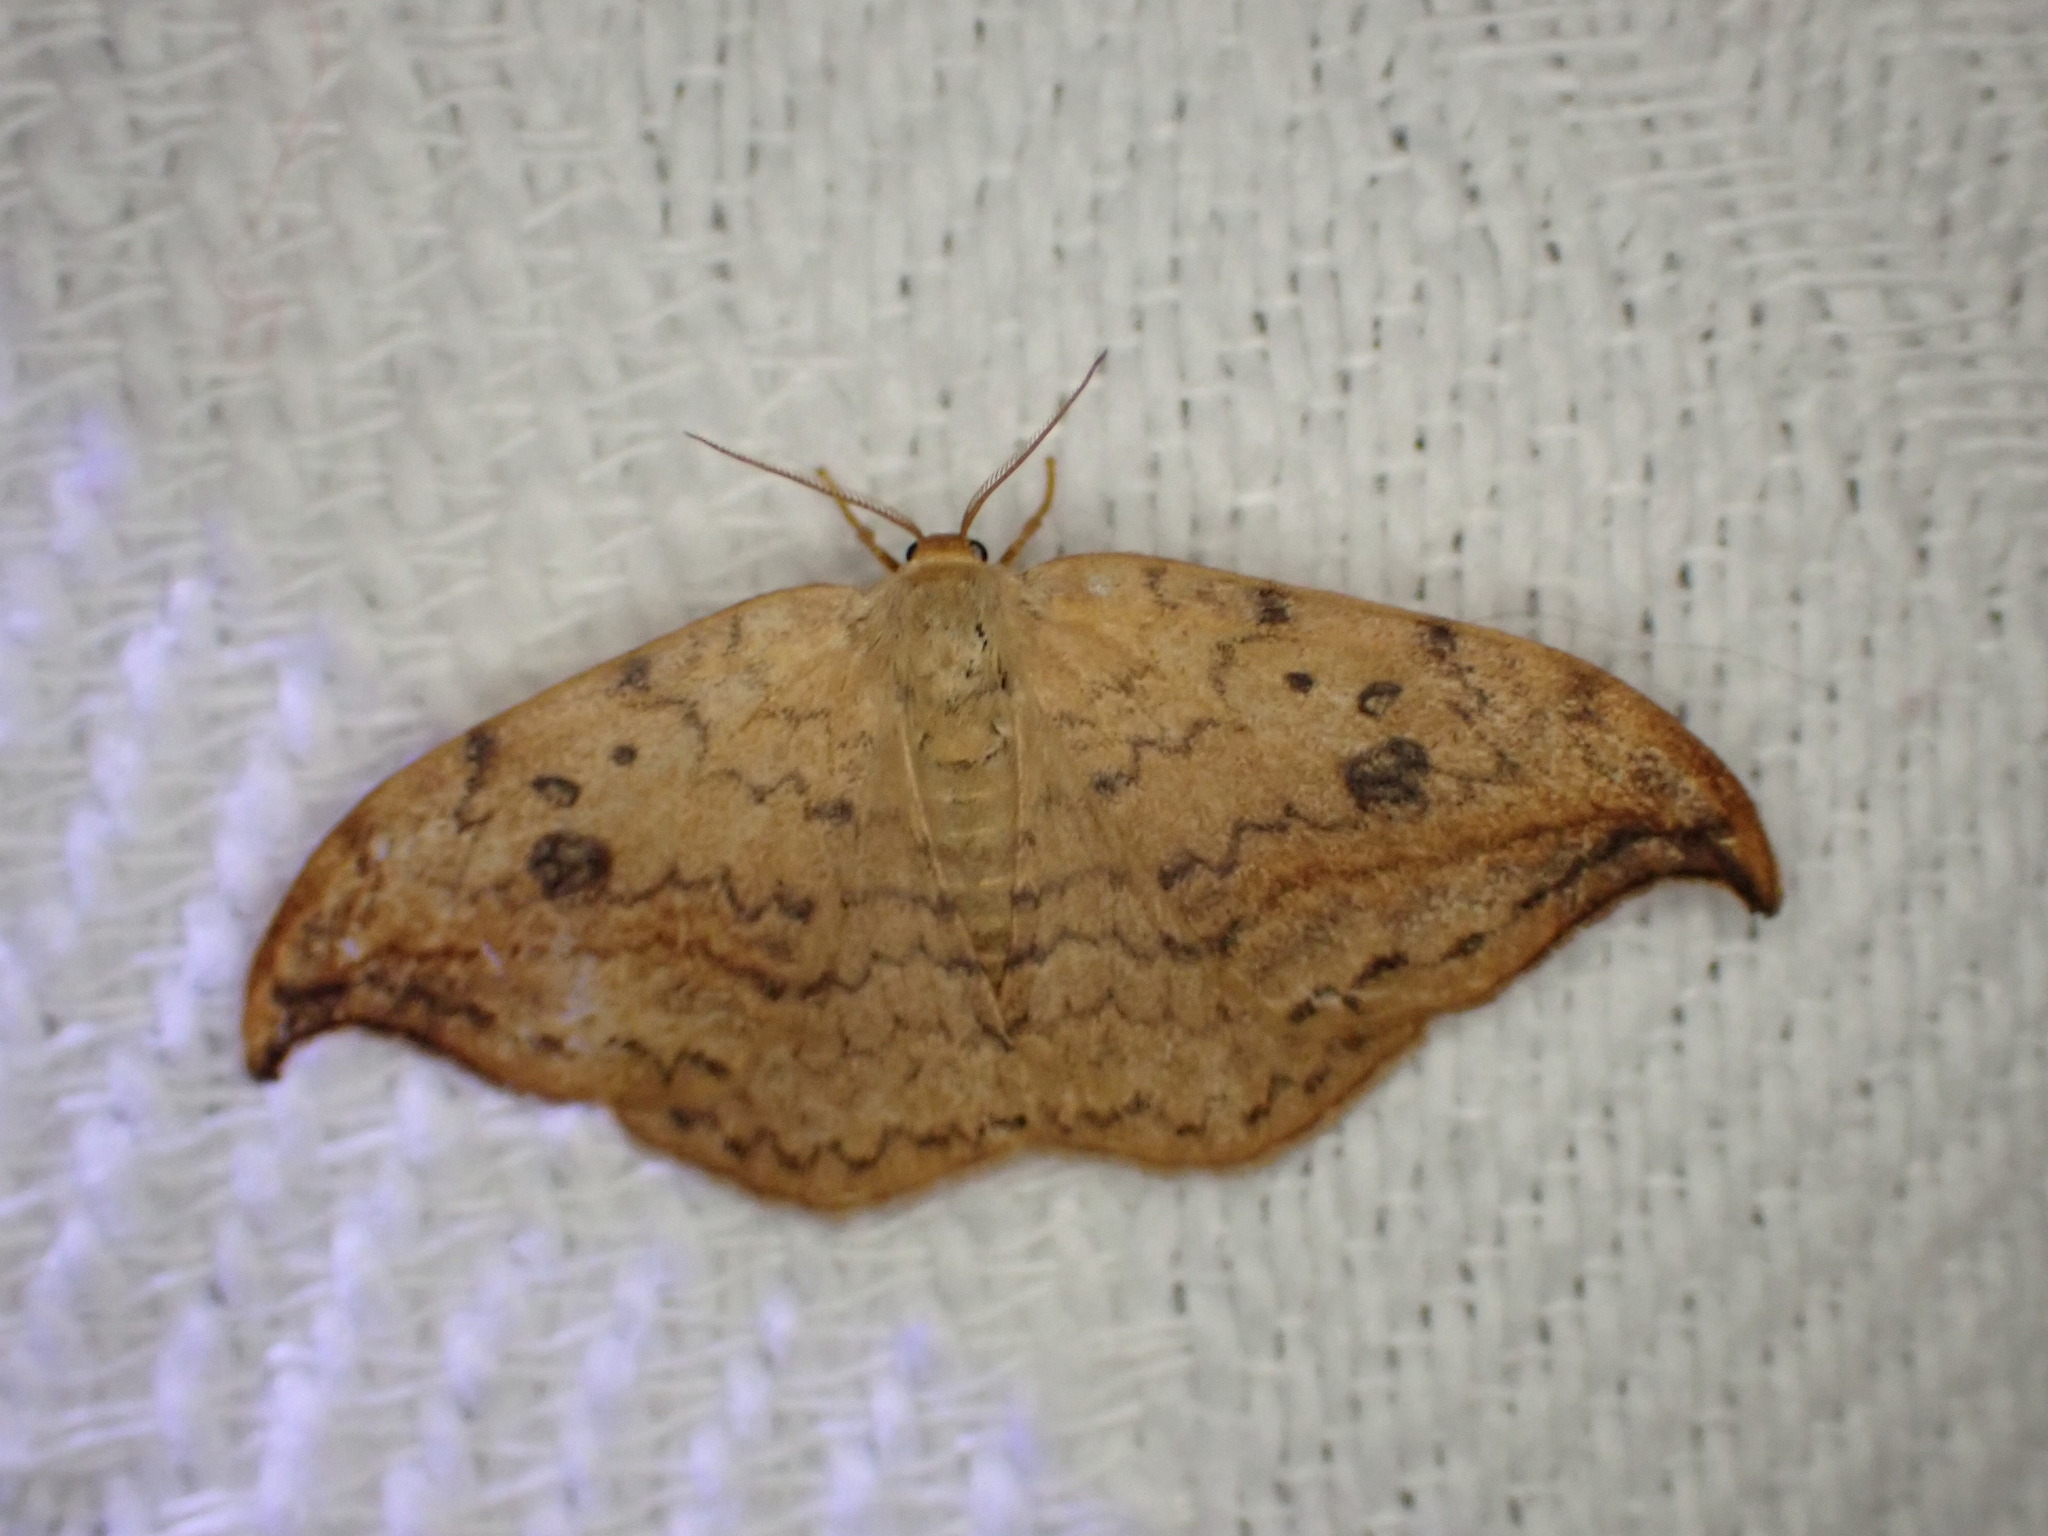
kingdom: Animalia
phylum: Arthropoda
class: Insecta
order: Lepidoptera
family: Drepanidae
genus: Drepana
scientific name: Drepana falcataria
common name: Pebble hook-tip
